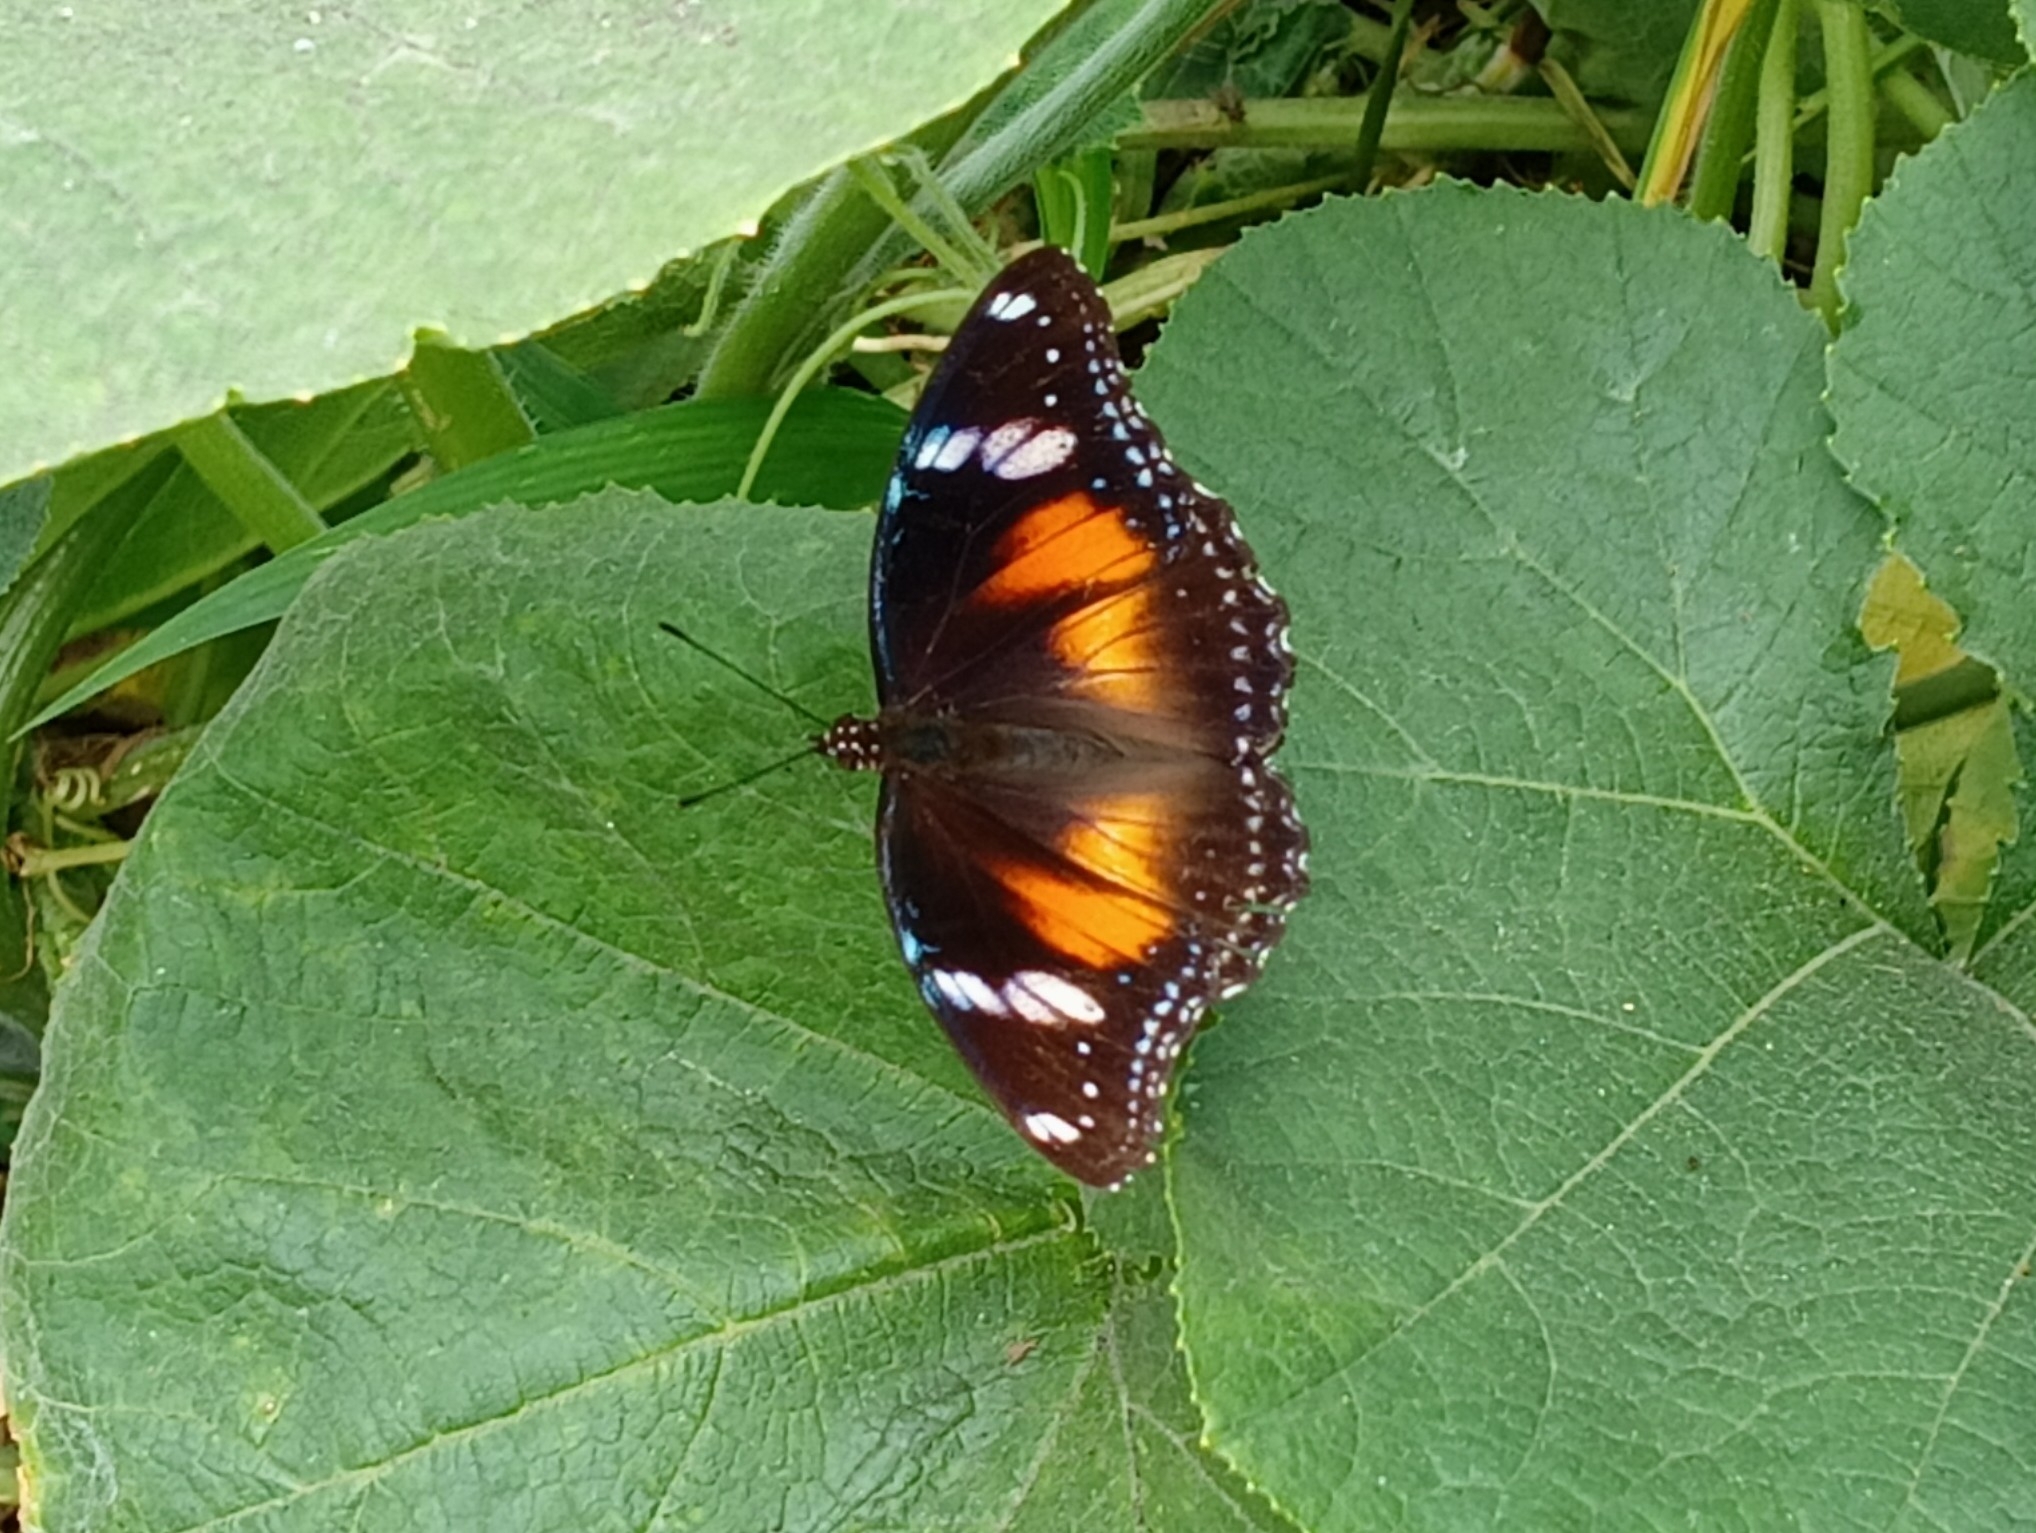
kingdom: Animalia
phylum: Arthropoda
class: Insecta
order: Lepidoptera
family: Nymphalidae
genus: Hypolimnas
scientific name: Hypolimnas bolina
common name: Great eggfly
